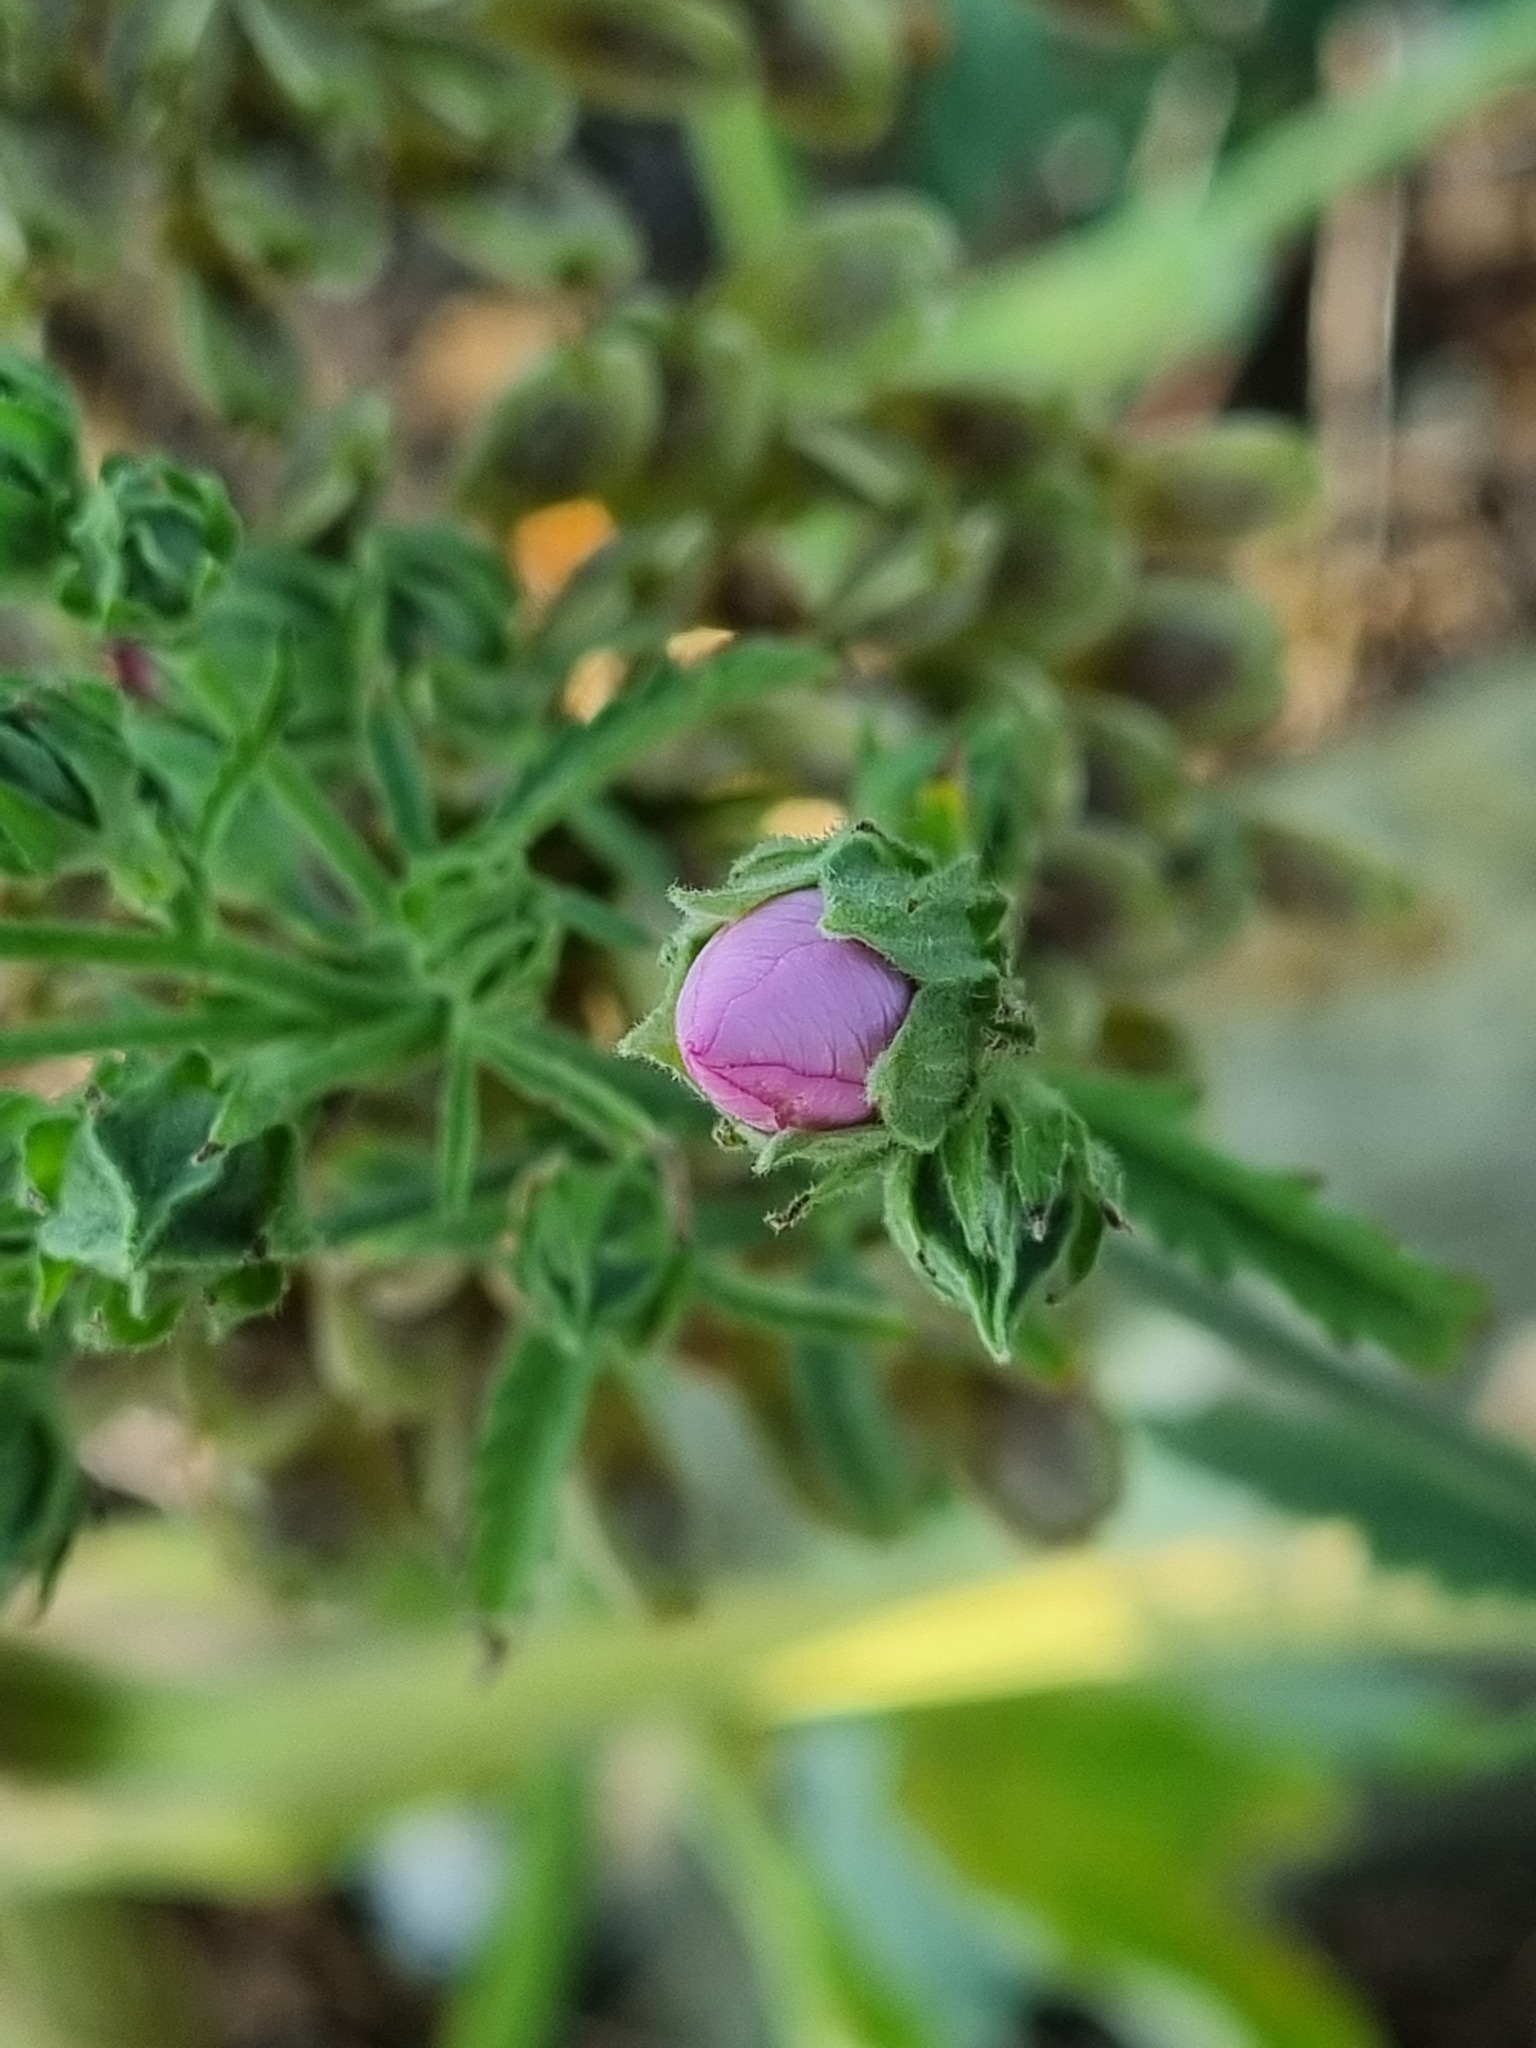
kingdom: Plantae
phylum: Tracheophyta
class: Magnoliopsida
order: Malvales
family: Malvaceae
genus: Althaea
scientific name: Althaea cannabina
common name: Palm-leaf marshmallow
